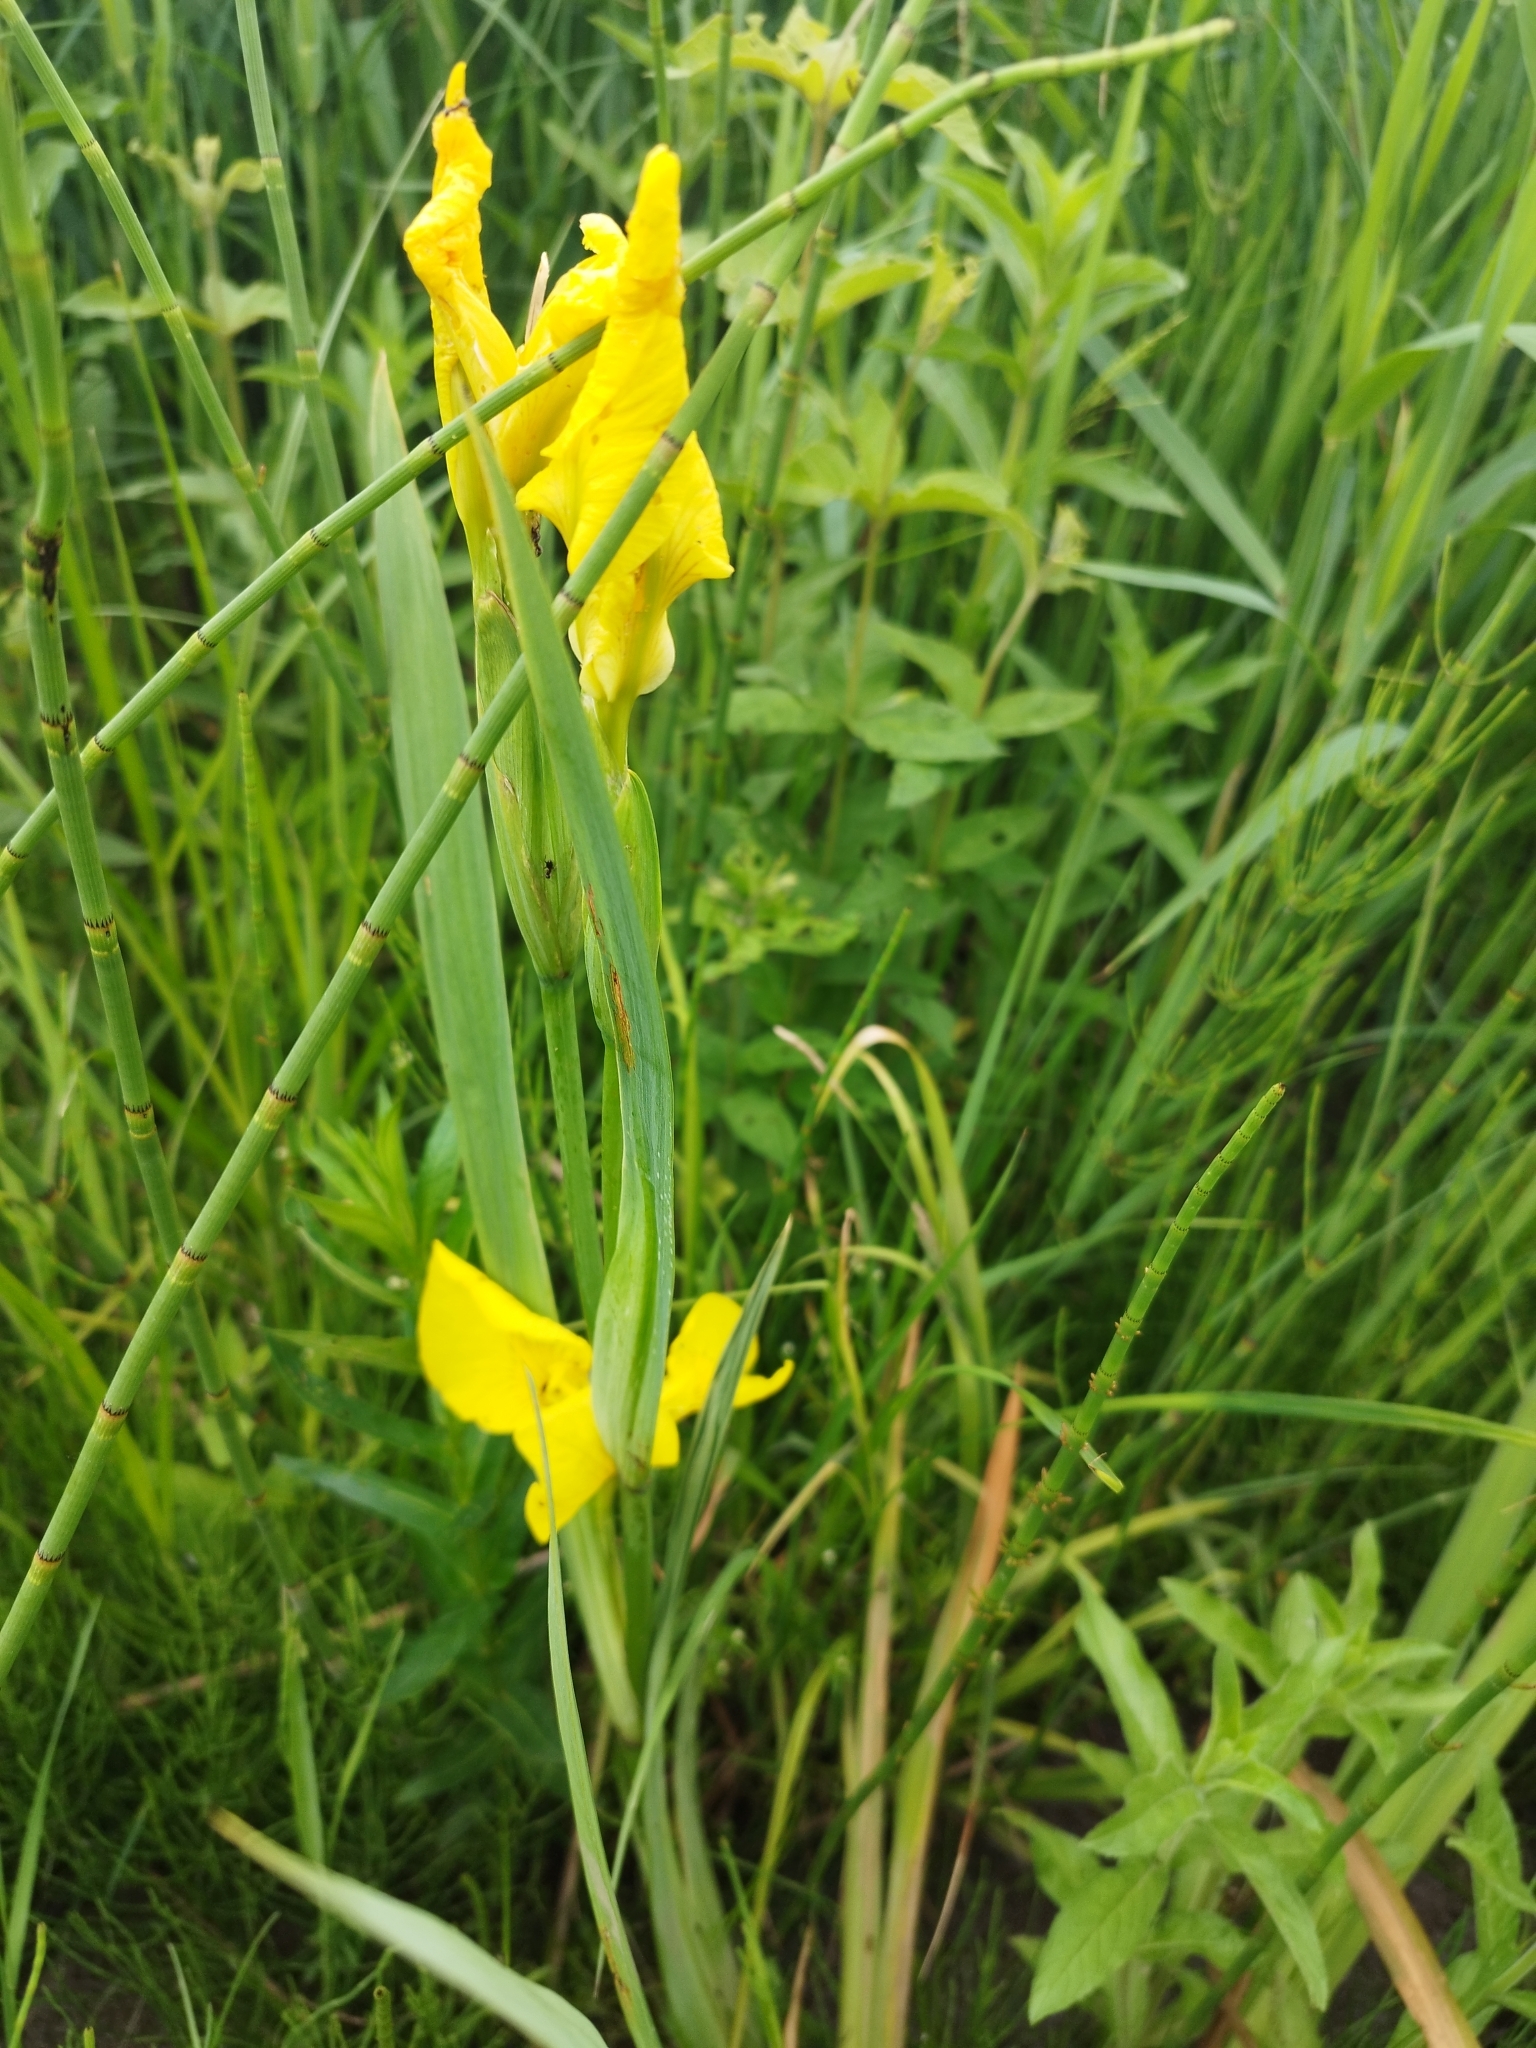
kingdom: Plantae
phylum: Tracheophyta
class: Liliopsida
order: Asparagales
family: Iridaceae
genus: Iris
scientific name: Iris pseudacorus
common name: Yellow flag
